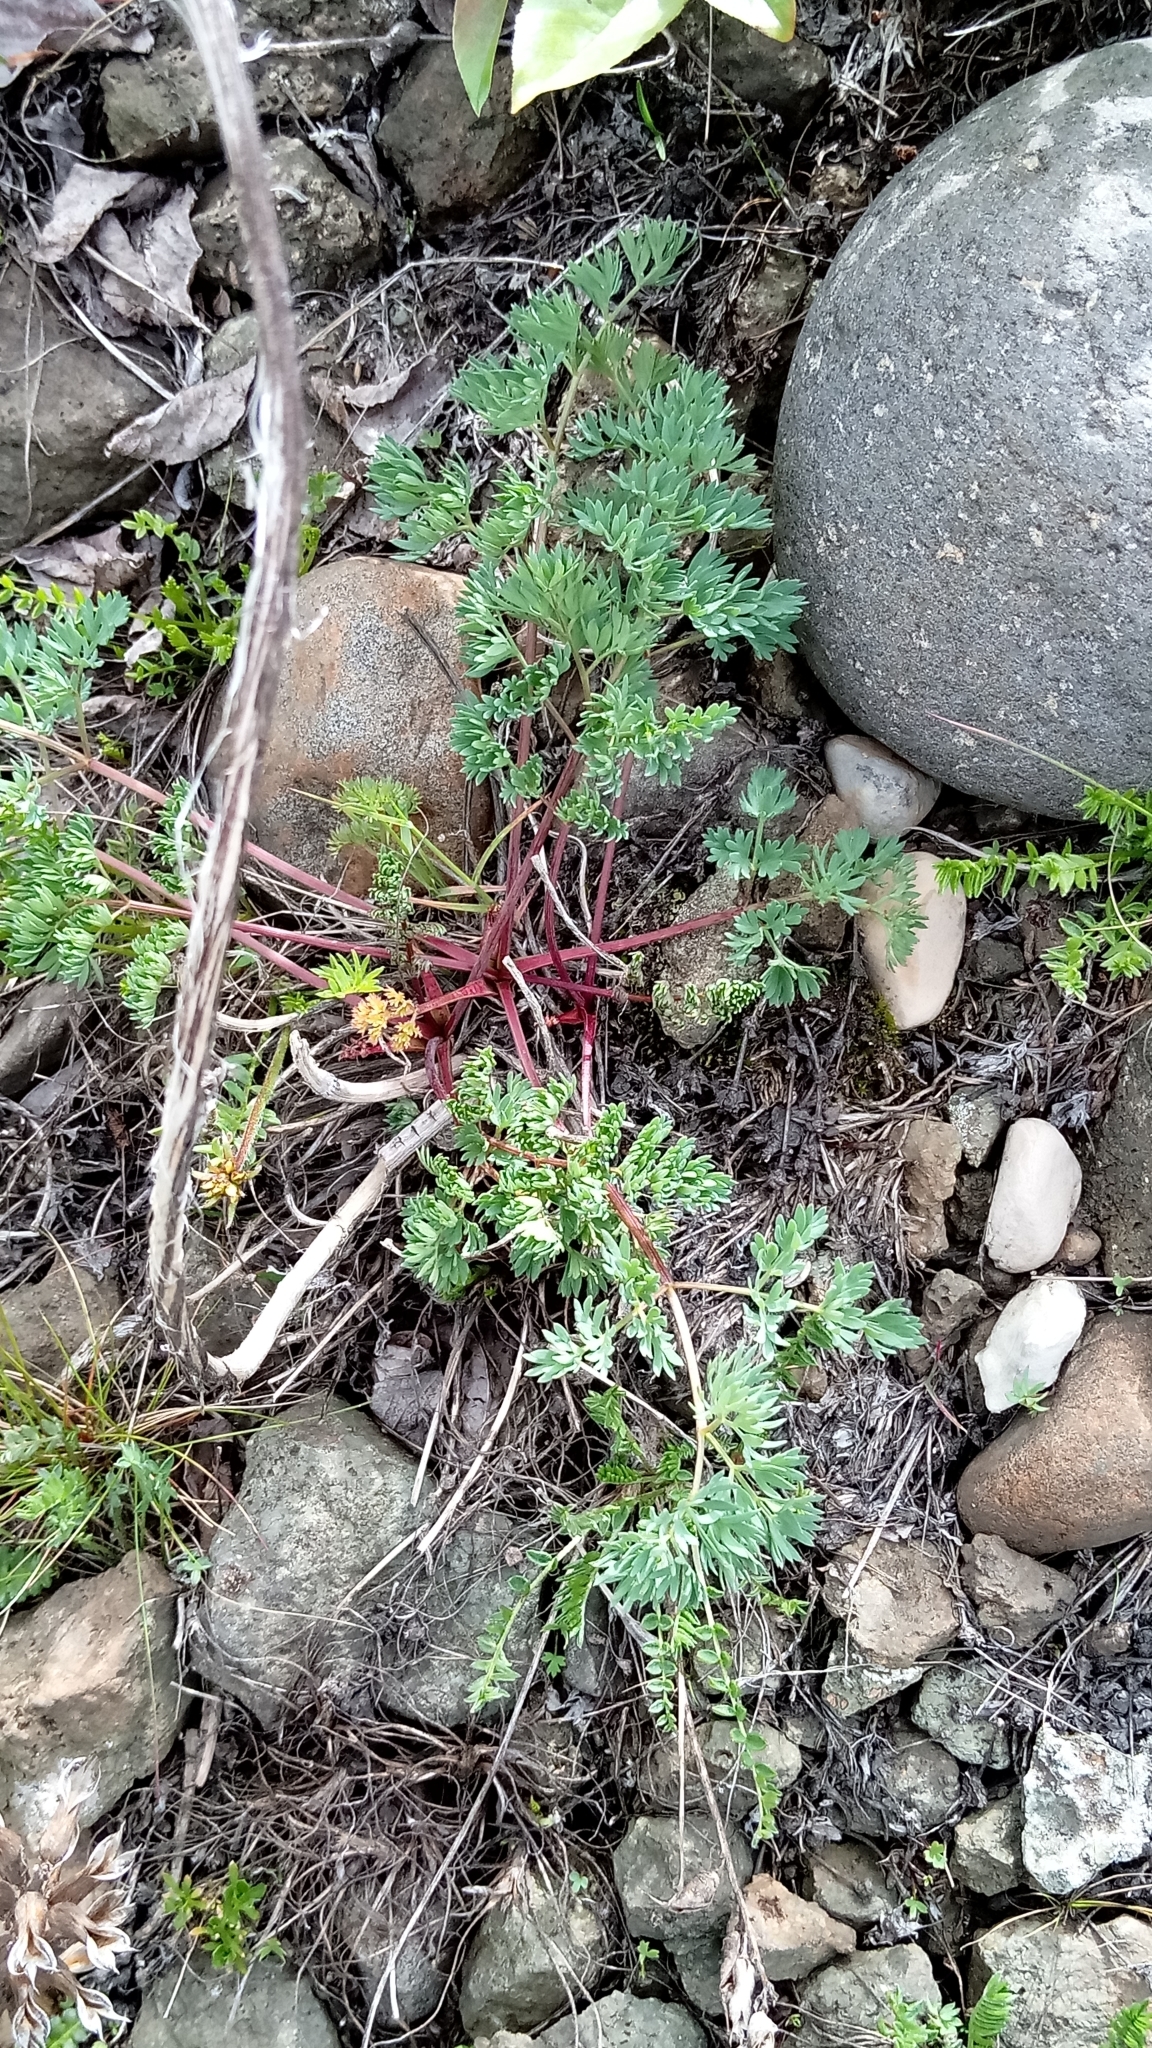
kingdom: Plantae
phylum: Tracheophyta
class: Magnoliopsida
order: Apiales
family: Apiaceae
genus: Phlojodicarpus
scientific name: Phlojodicarpus villosus
